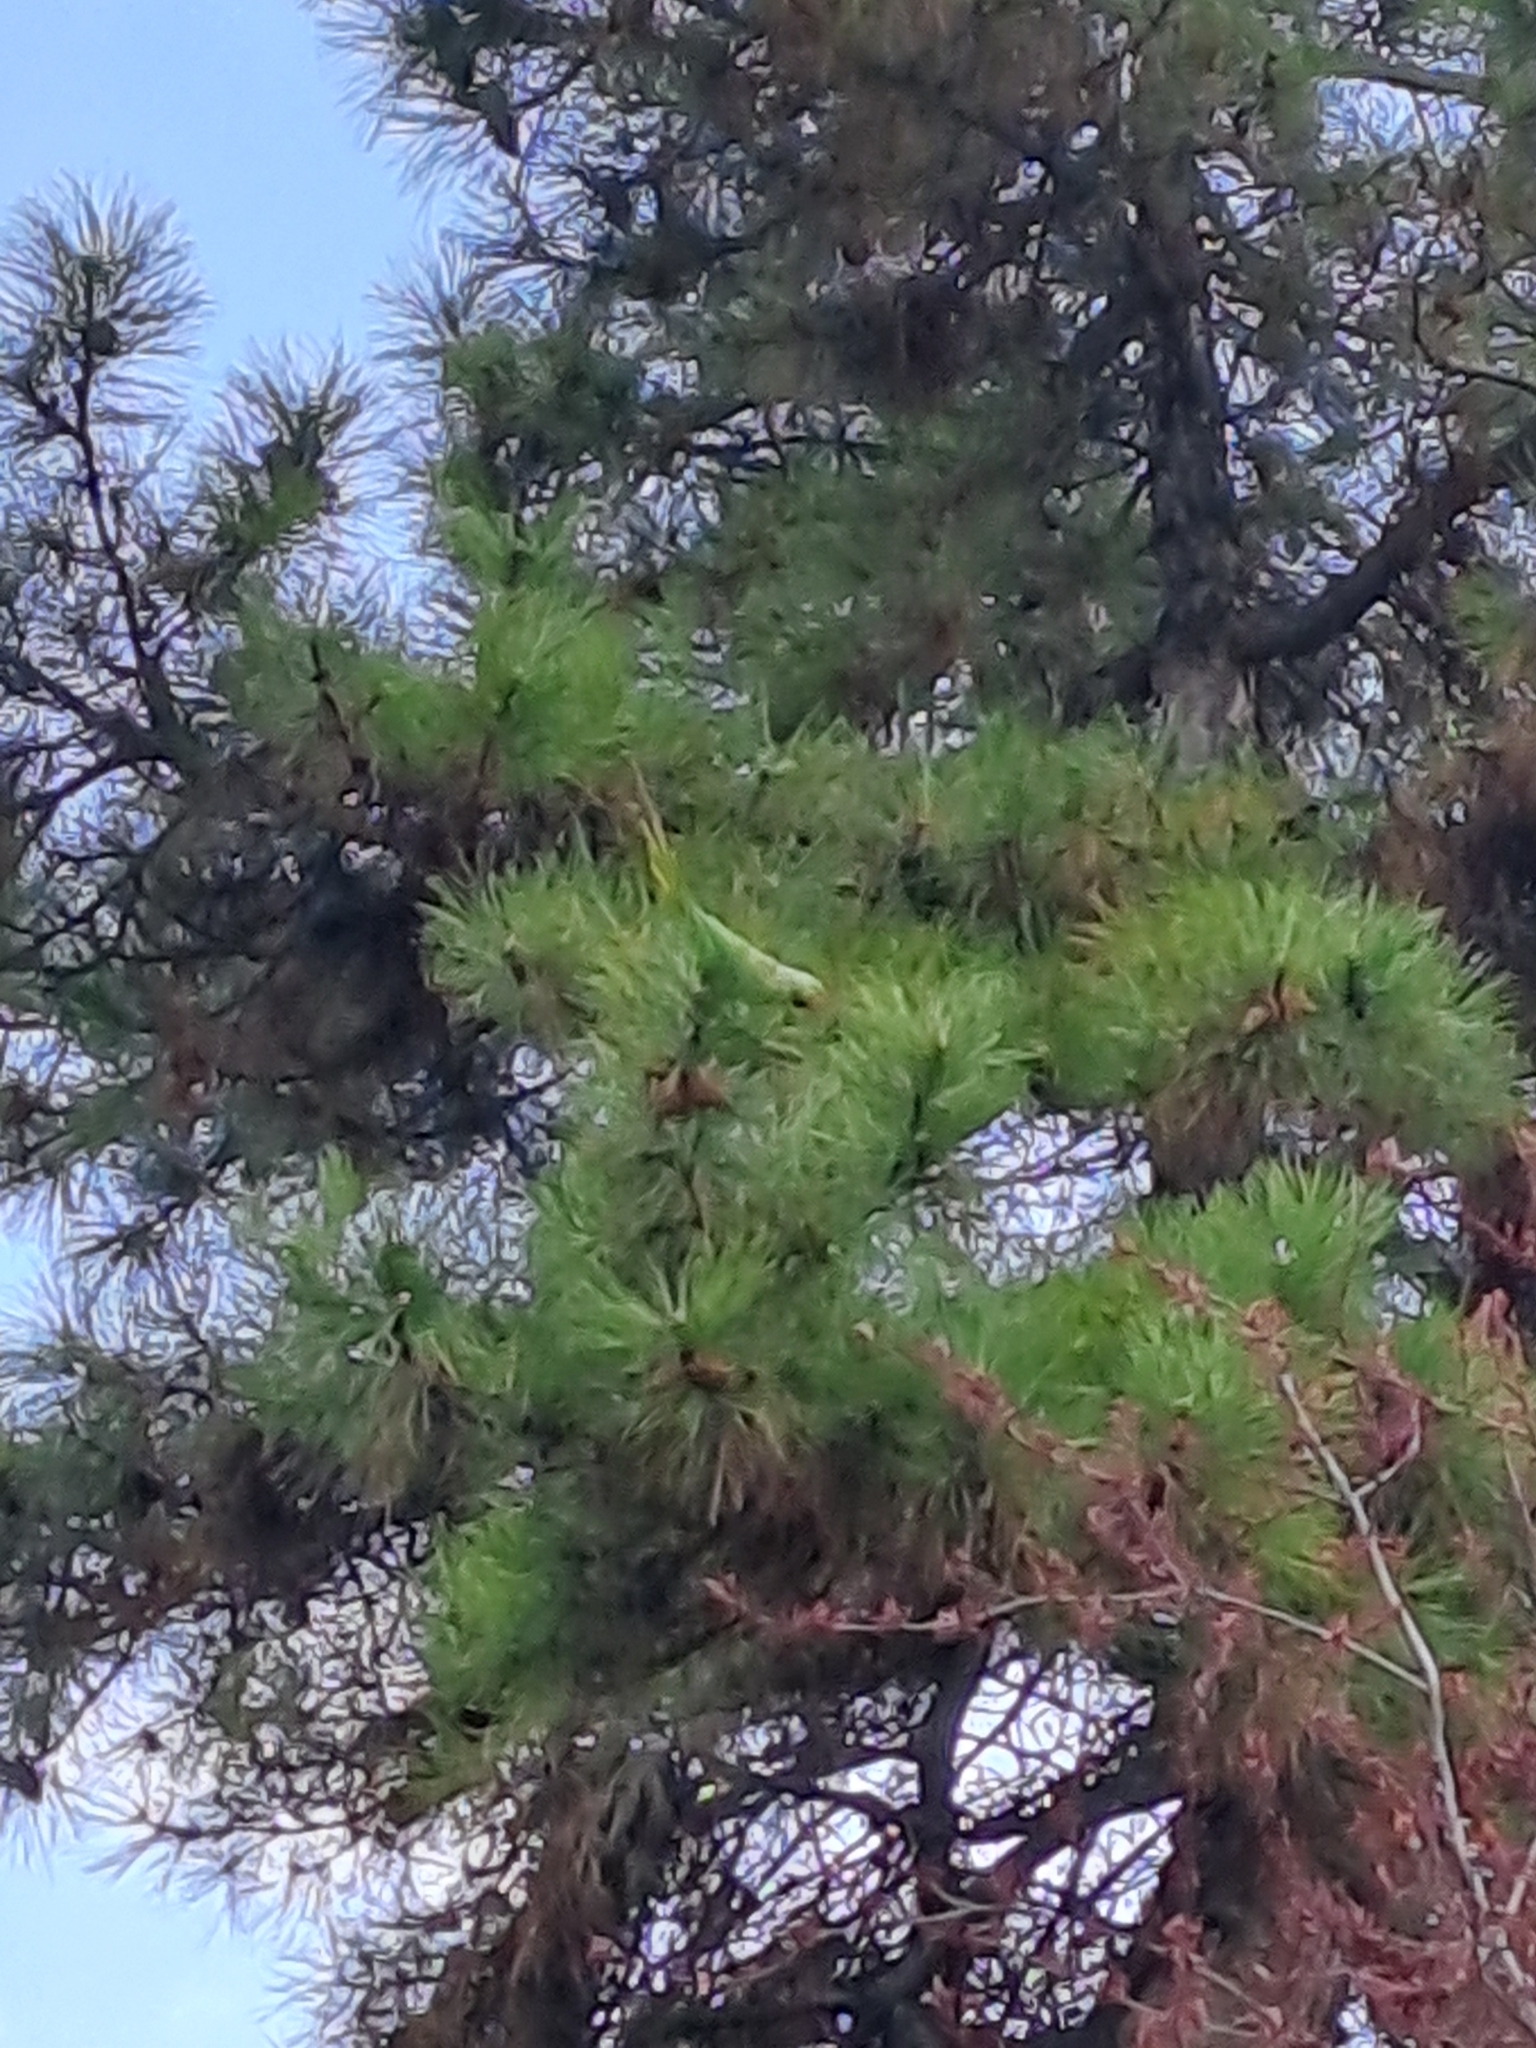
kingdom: Animalia
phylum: Chordata
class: Aves
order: Psittaciformes
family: Psittacidae
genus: Psittacula
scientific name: Psittacula krameri
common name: Rose-ringed parakeet
